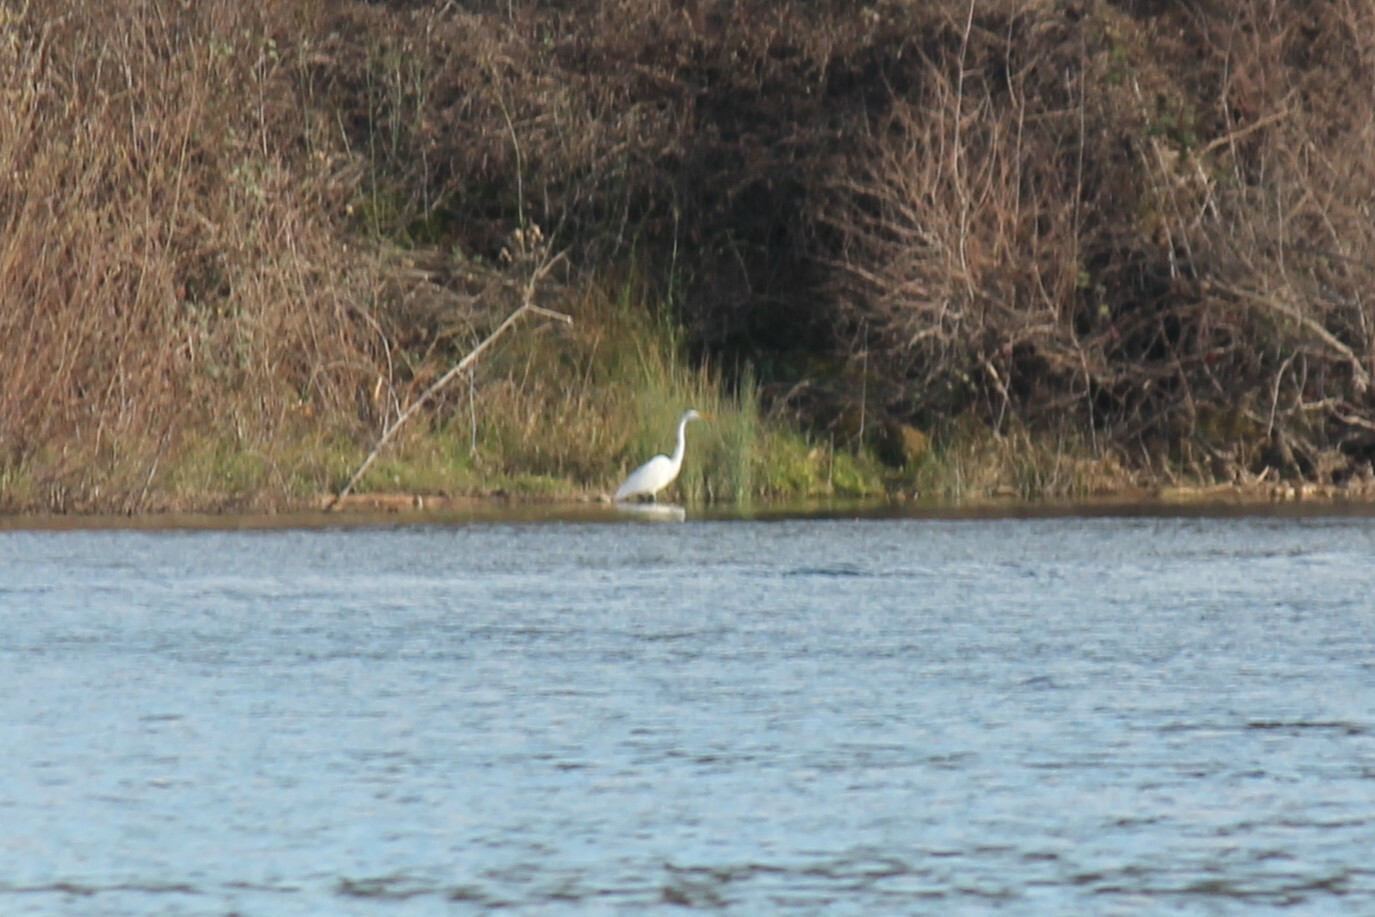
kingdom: Animalia
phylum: Chordata
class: Aves
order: Pelecaniformes
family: Ardeidae
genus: Ardea
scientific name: Ardea alba
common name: Great egret
